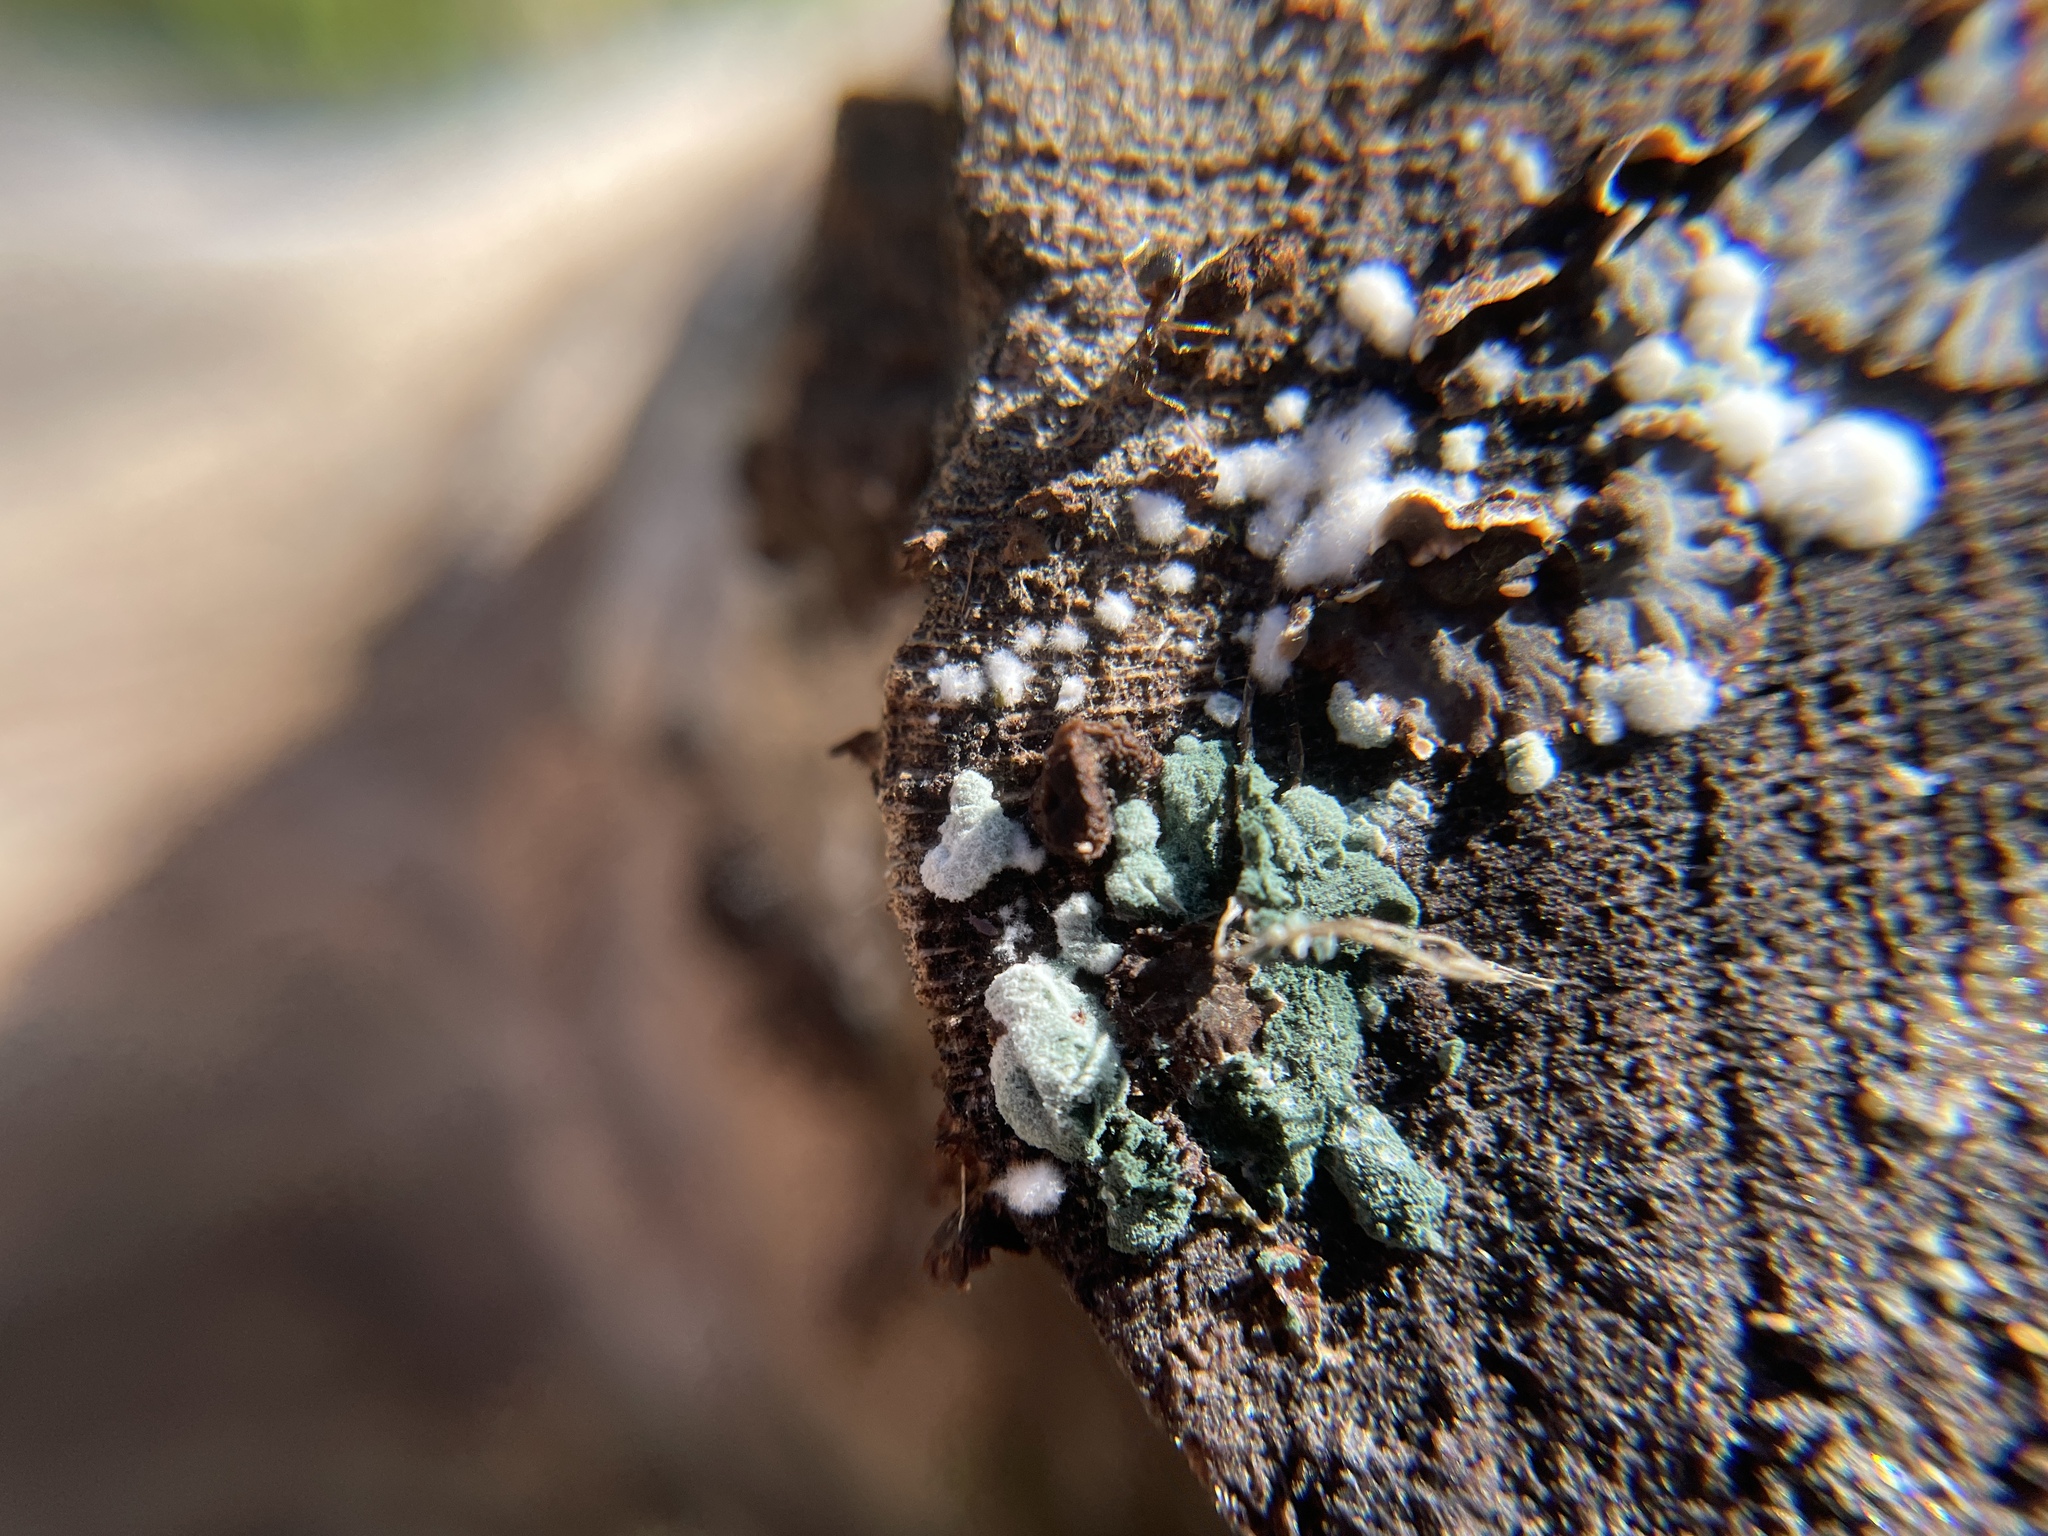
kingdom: Fungi
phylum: Ascomycota
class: Sordariomycetes
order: Hypocreales
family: Hypocreaceae
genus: Trichoderma
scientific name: Trichoderma viride
